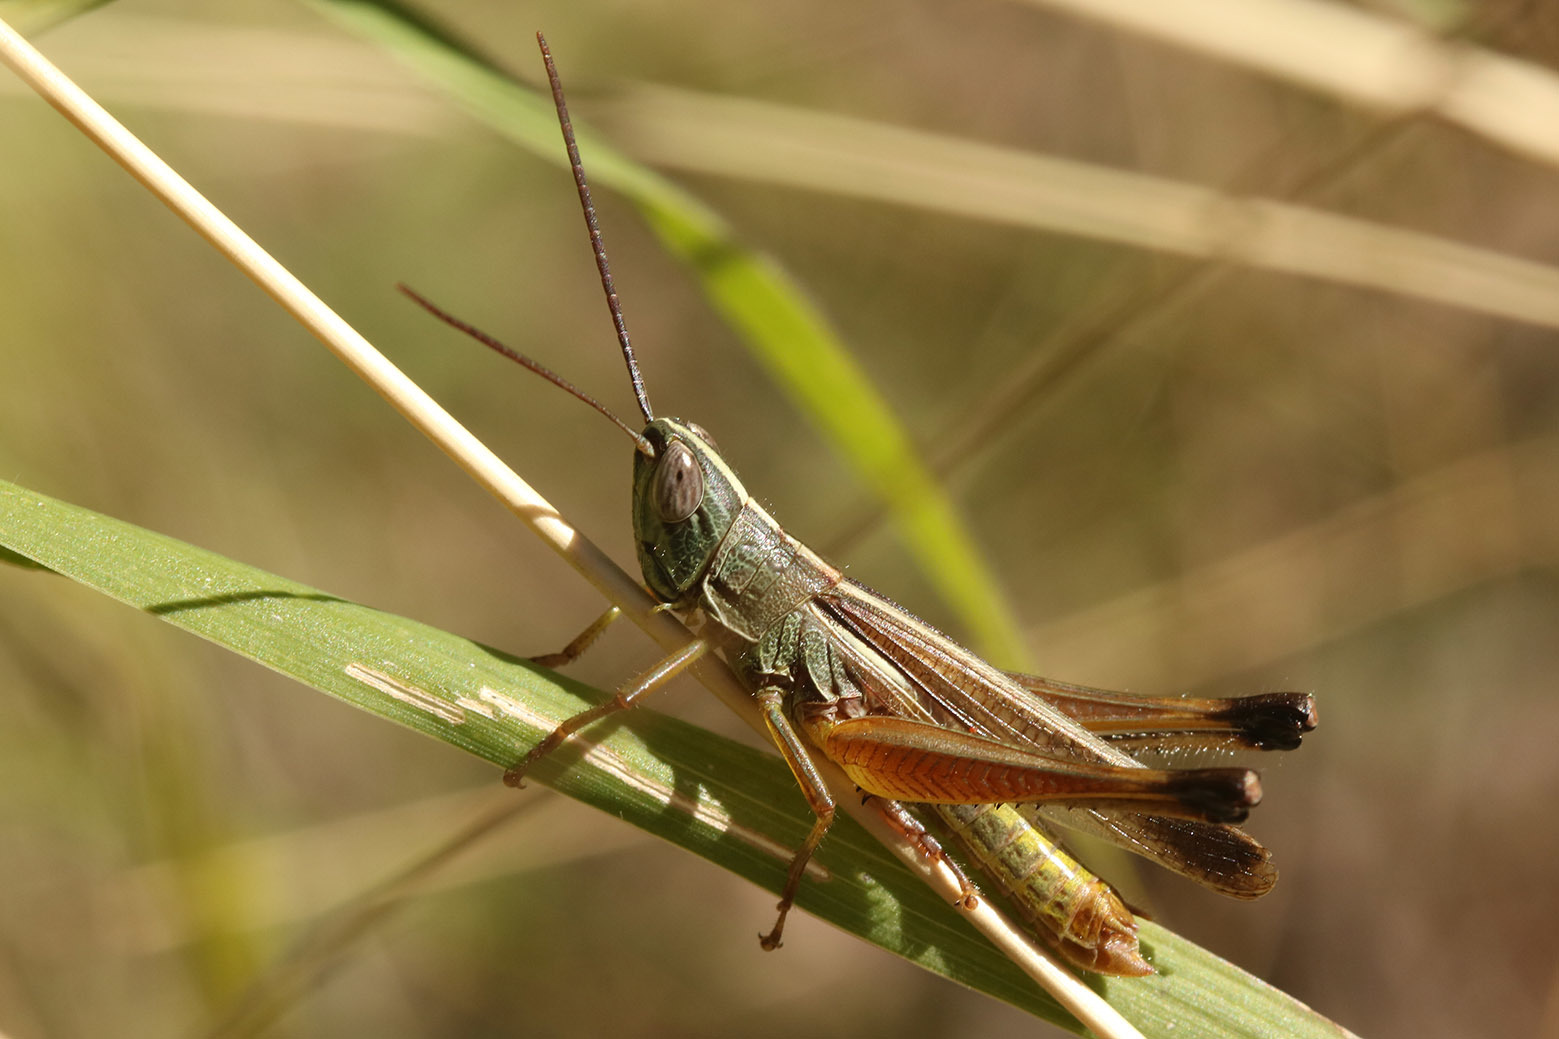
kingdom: Animalia
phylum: Arthropoda
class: Insecta
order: Orthoptera
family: Acrididae
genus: Staurorhectus
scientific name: Staurorhectus longicornis
